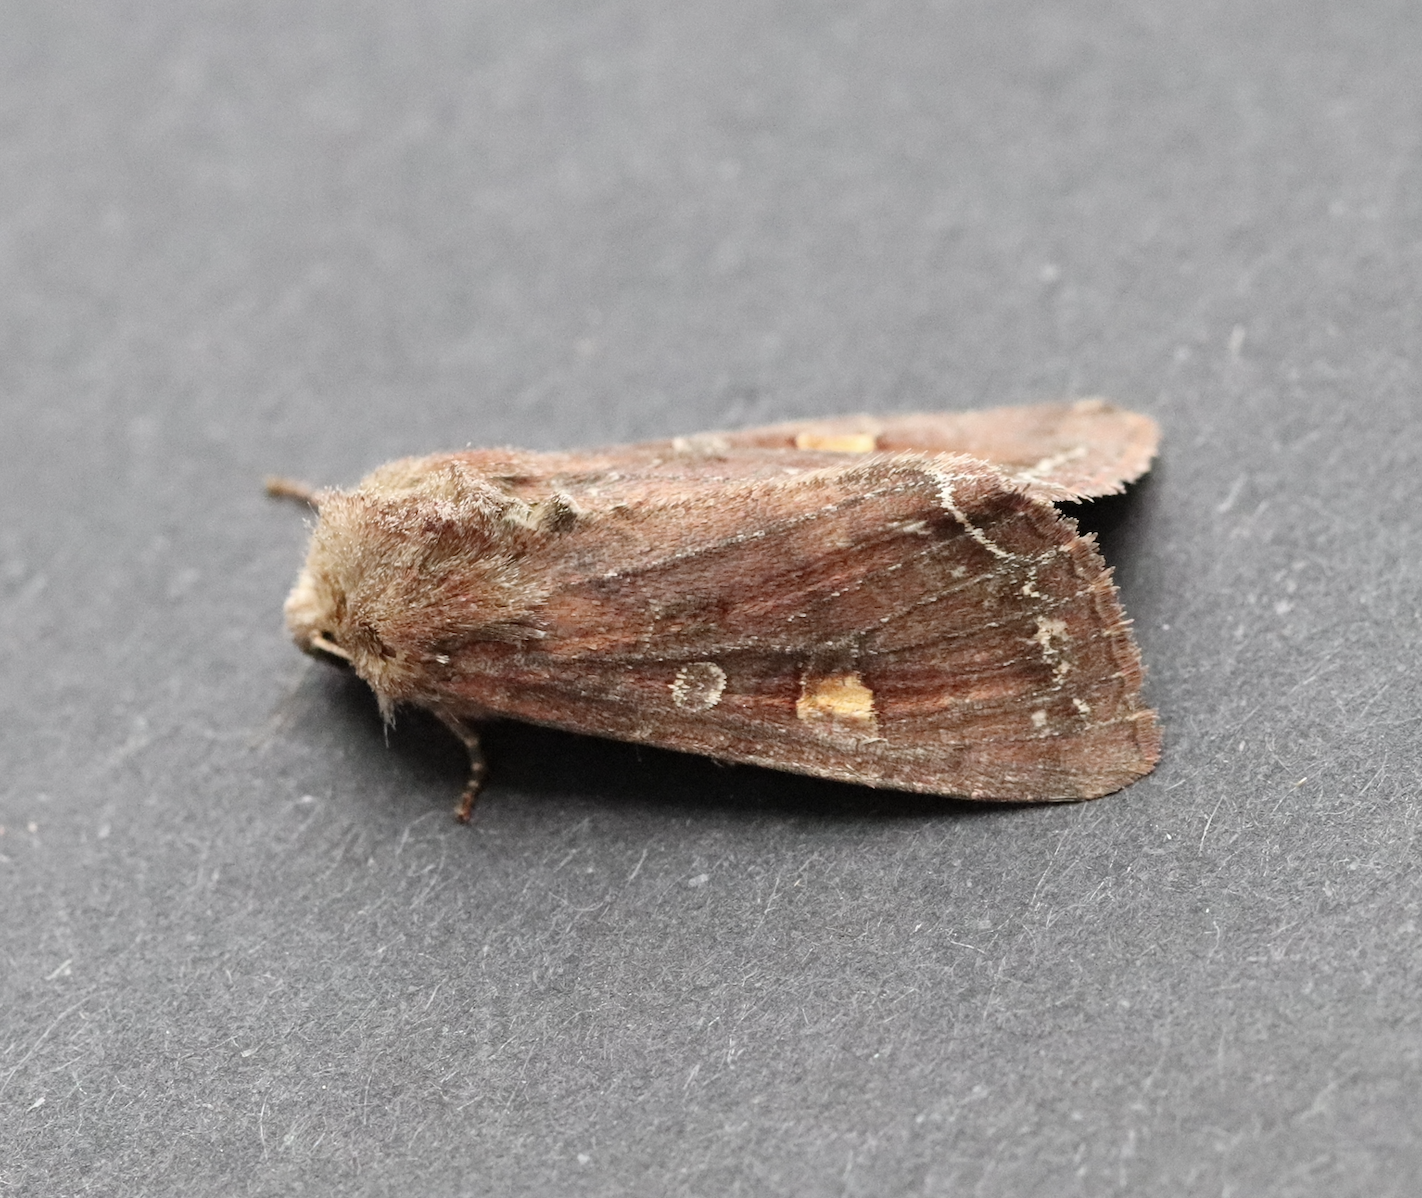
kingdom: Animalia
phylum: Arthropoda
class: Insecta
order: Lepidoptera
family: Noctuidae
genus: Lacanobia
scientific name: Lacanobia oleracea
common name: Bright-line brown-eye
